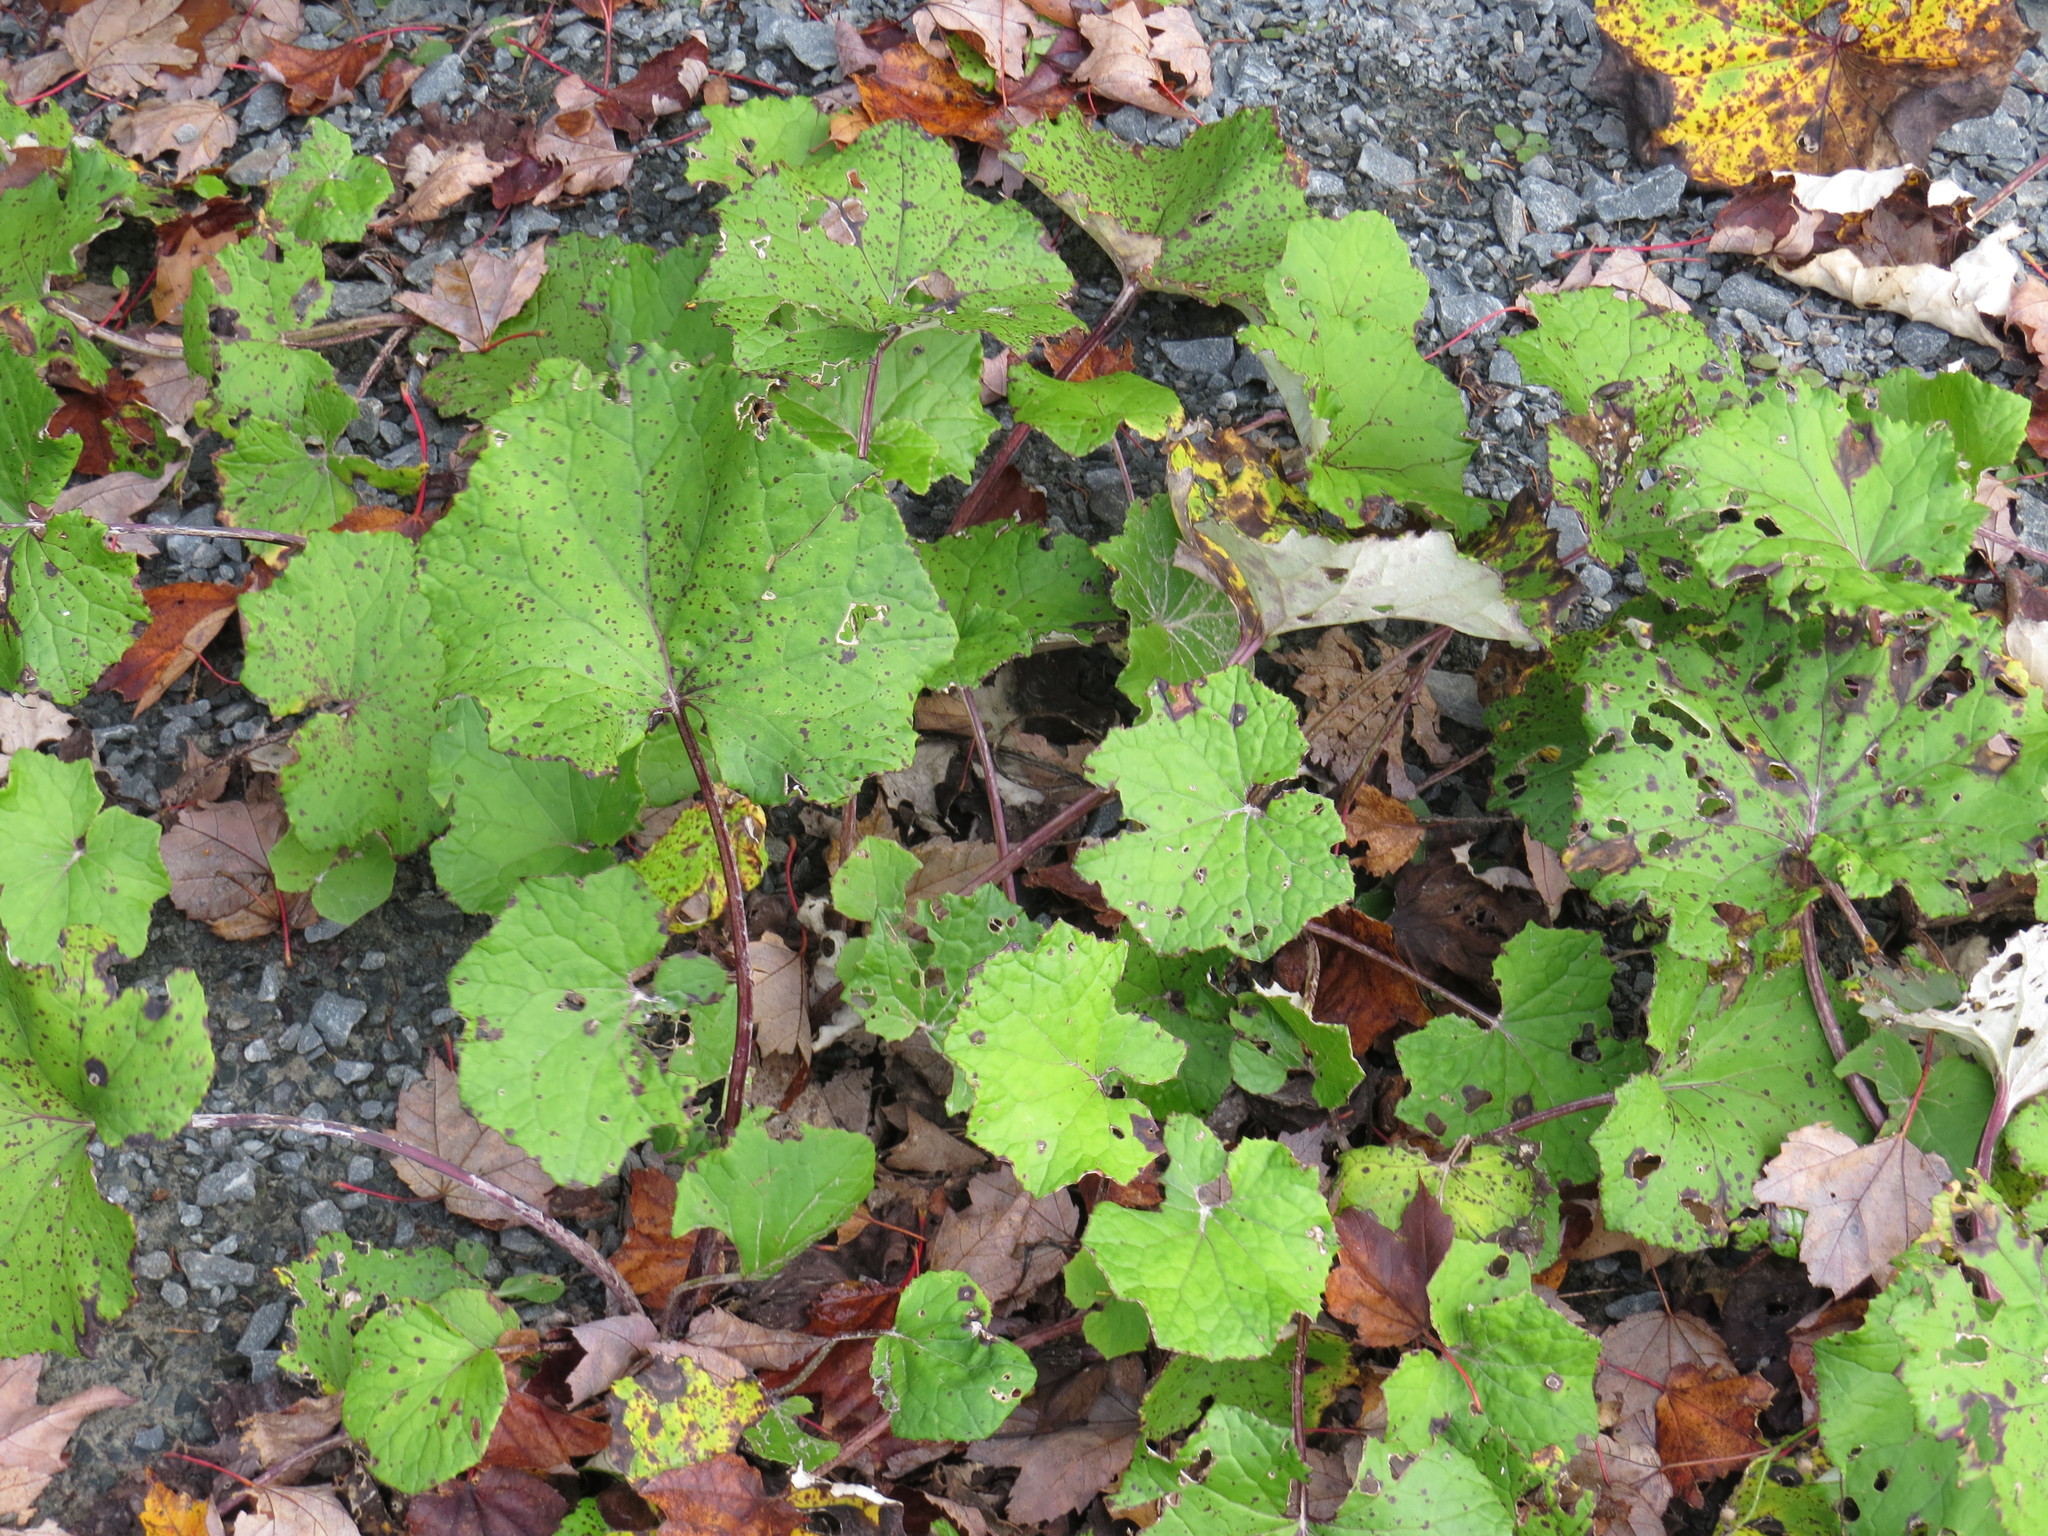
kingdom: Plantae
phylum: Tracheophyta
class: Magnoliopsida
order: Asterales
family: Asteraceae
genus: Tussilago
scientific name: Tussilago farfara
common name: Coltsfoot
